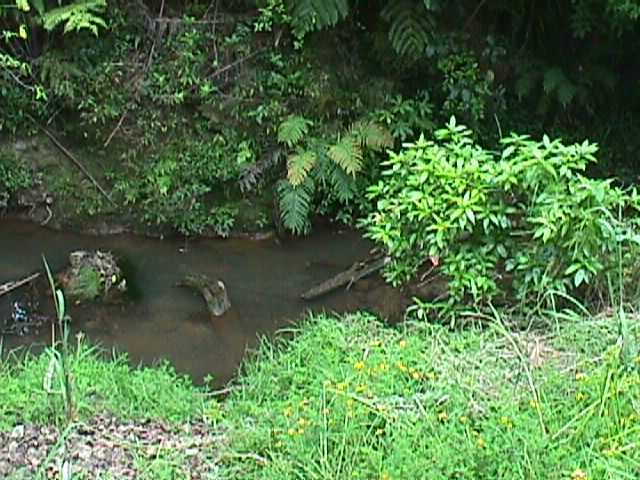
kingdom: Plantae
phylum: Tracheophyta
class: Magnoliopsida
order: Malpighiales
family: Violaceae
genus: Melicytus
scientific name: Melicytus ramiflorus
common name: Mahoe
